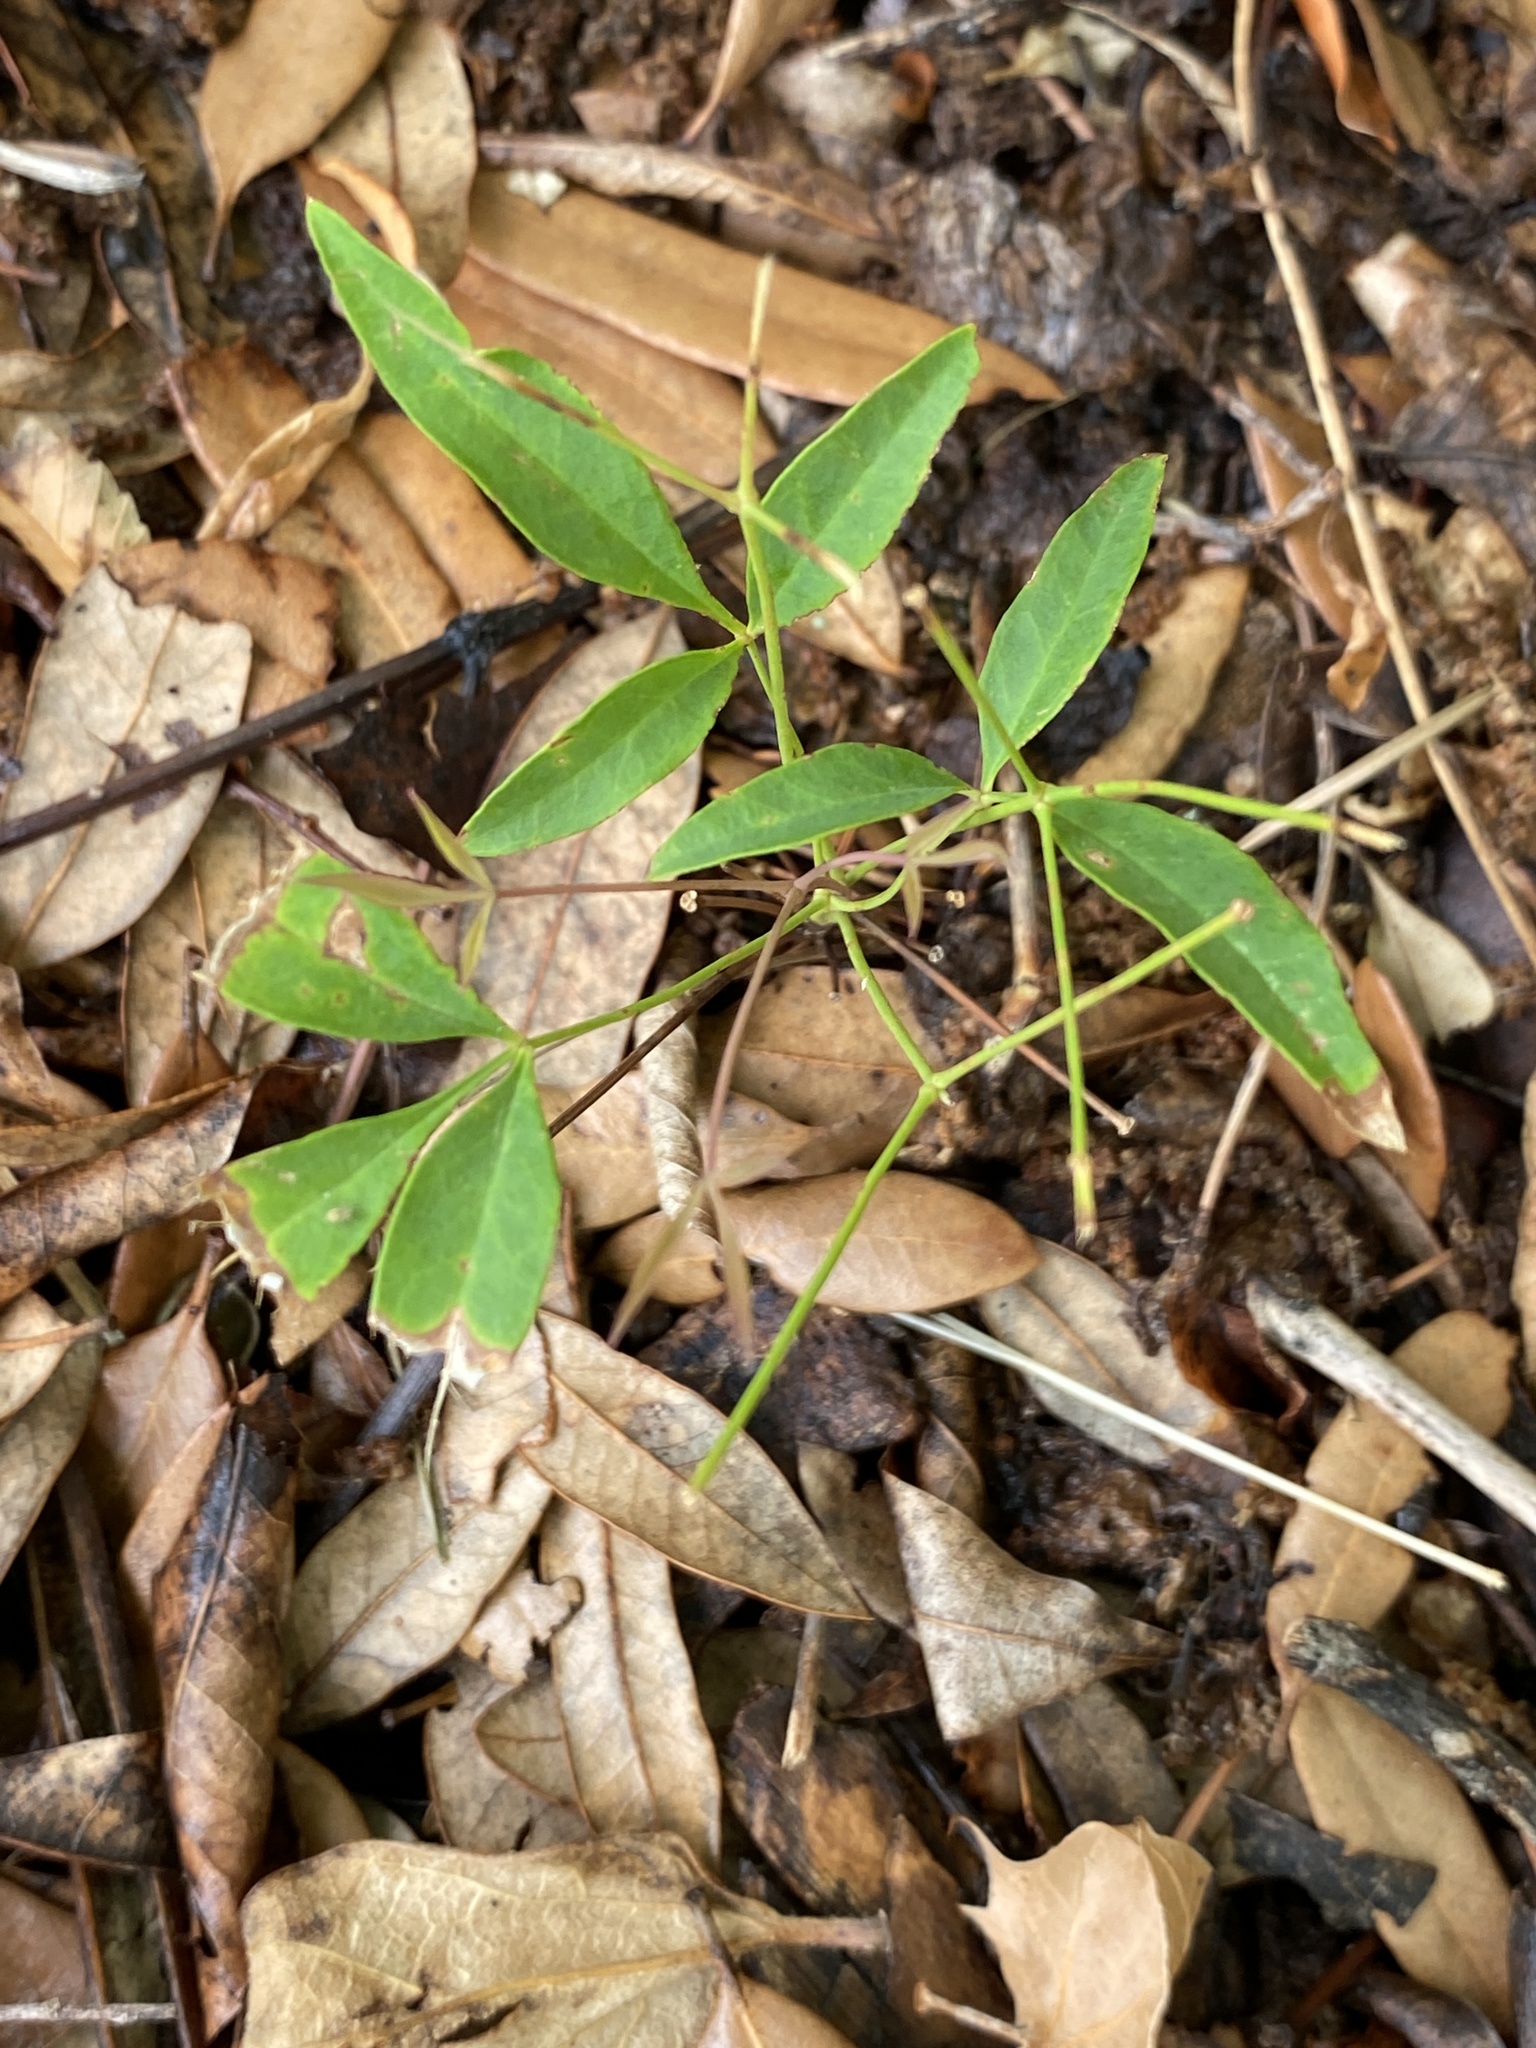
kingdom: Plantae
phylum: Tracheophyta
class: Magnoliopsida
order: Ranunculales
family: Berberidaceae
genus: Nandina
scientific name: Nandina domestica
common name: Sacred bamboo
